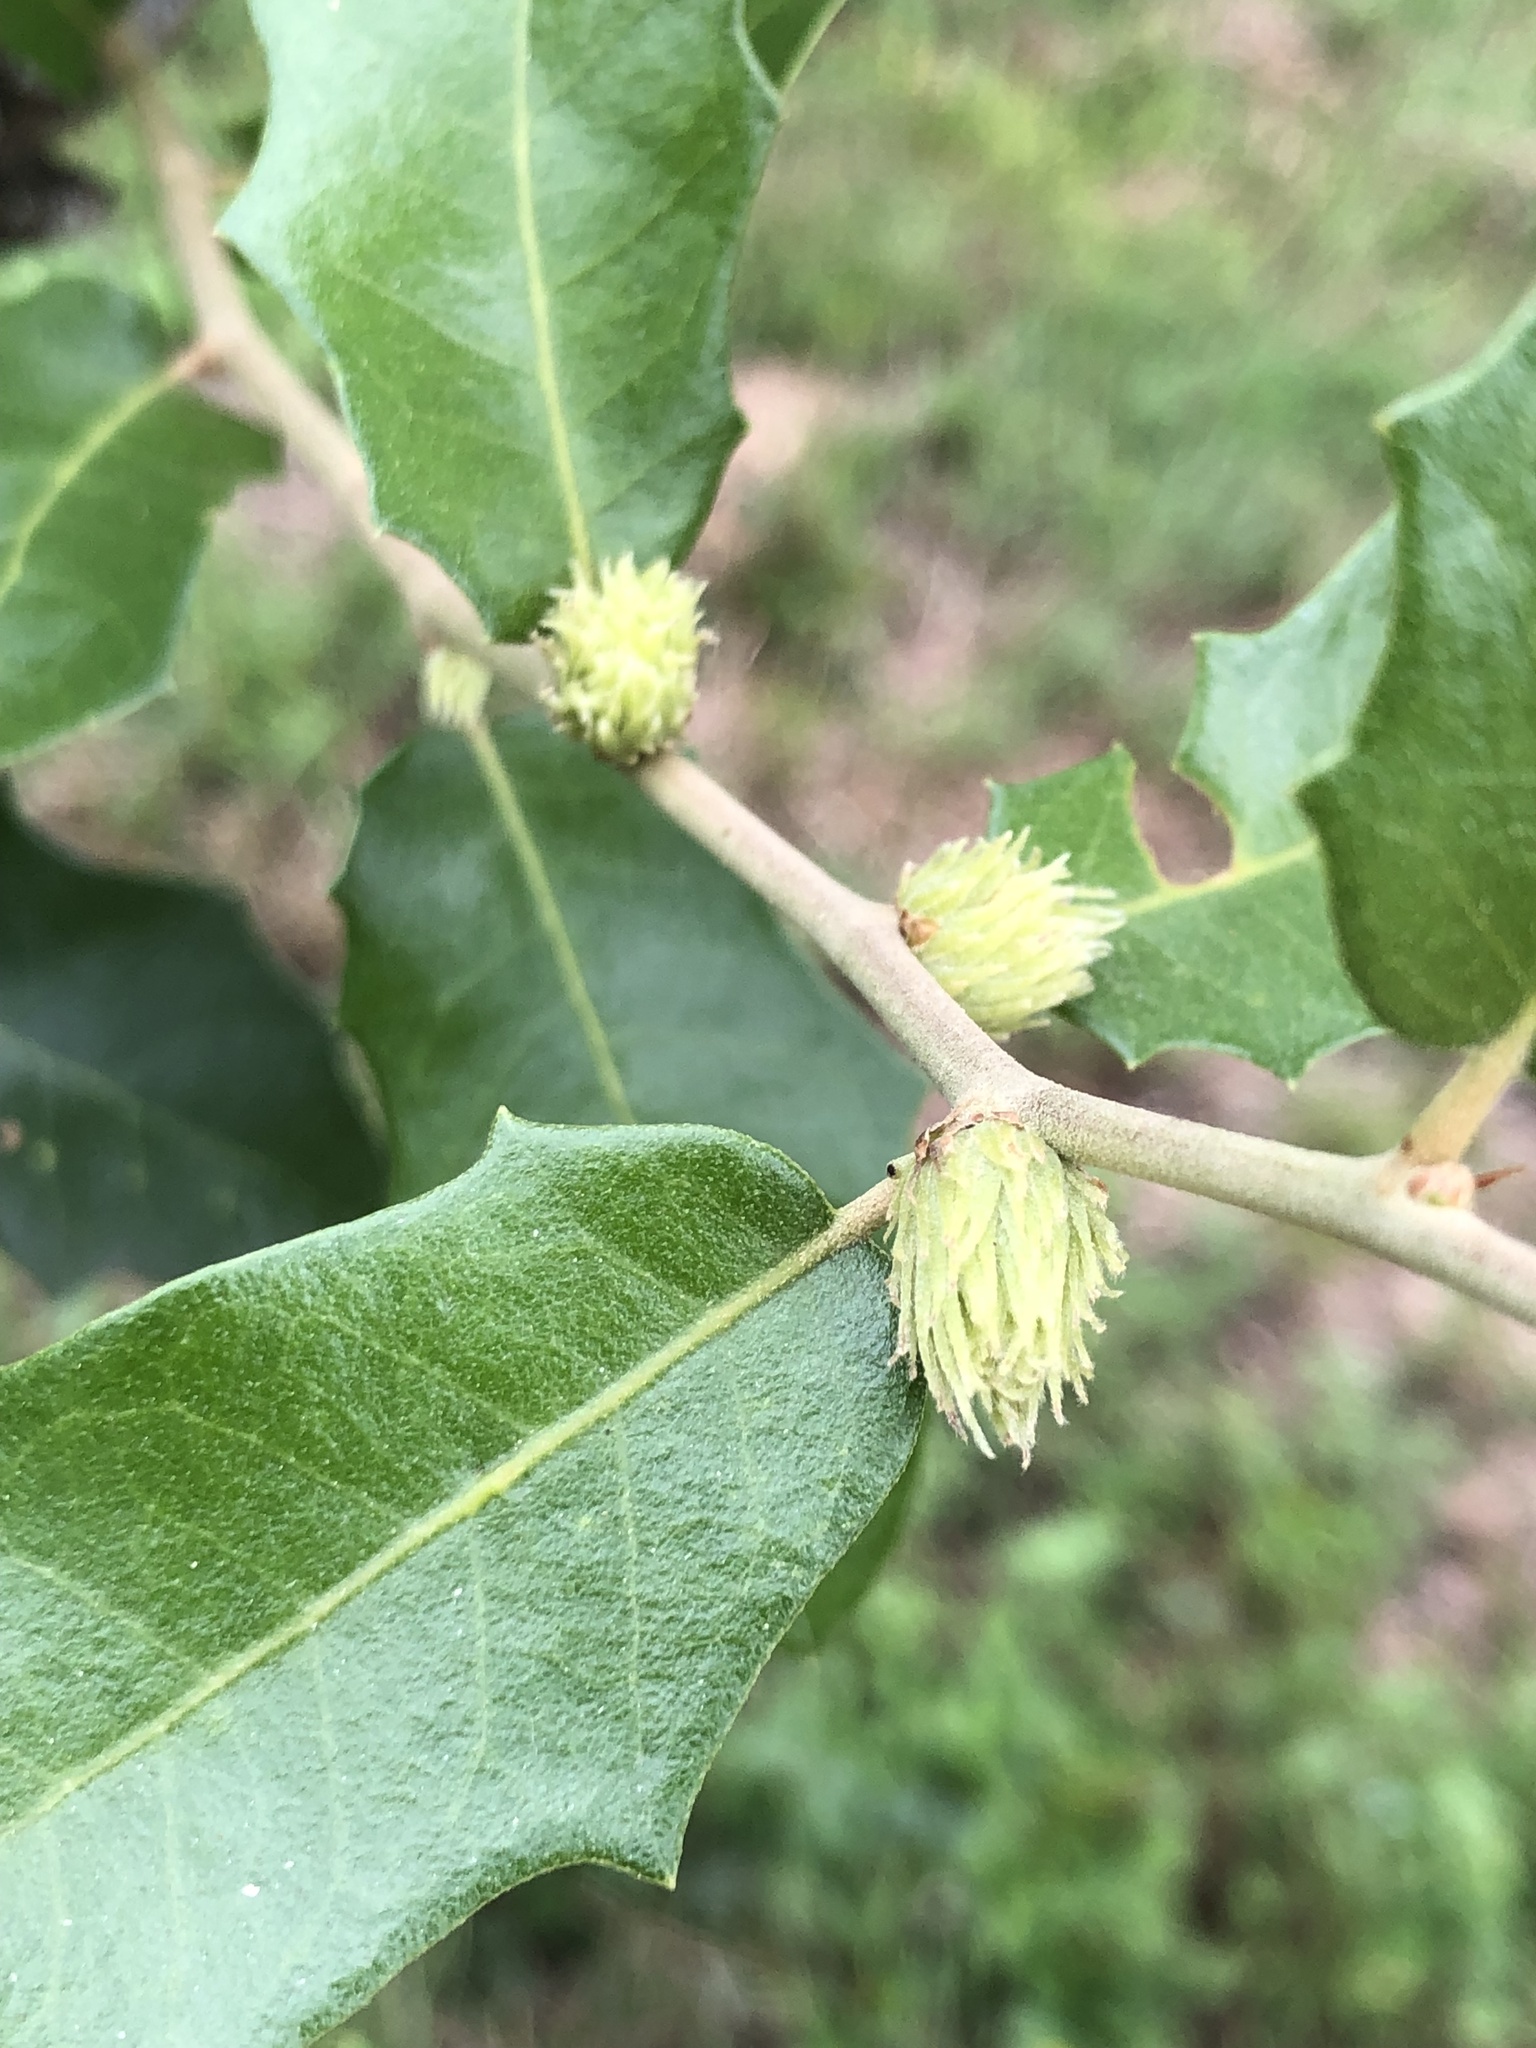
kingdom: Animalia
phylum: Arthropoda
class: Insecta
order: Hymenoptera
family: Cynipidae
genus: Andricus
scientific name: Andricus quercusfoliatus
